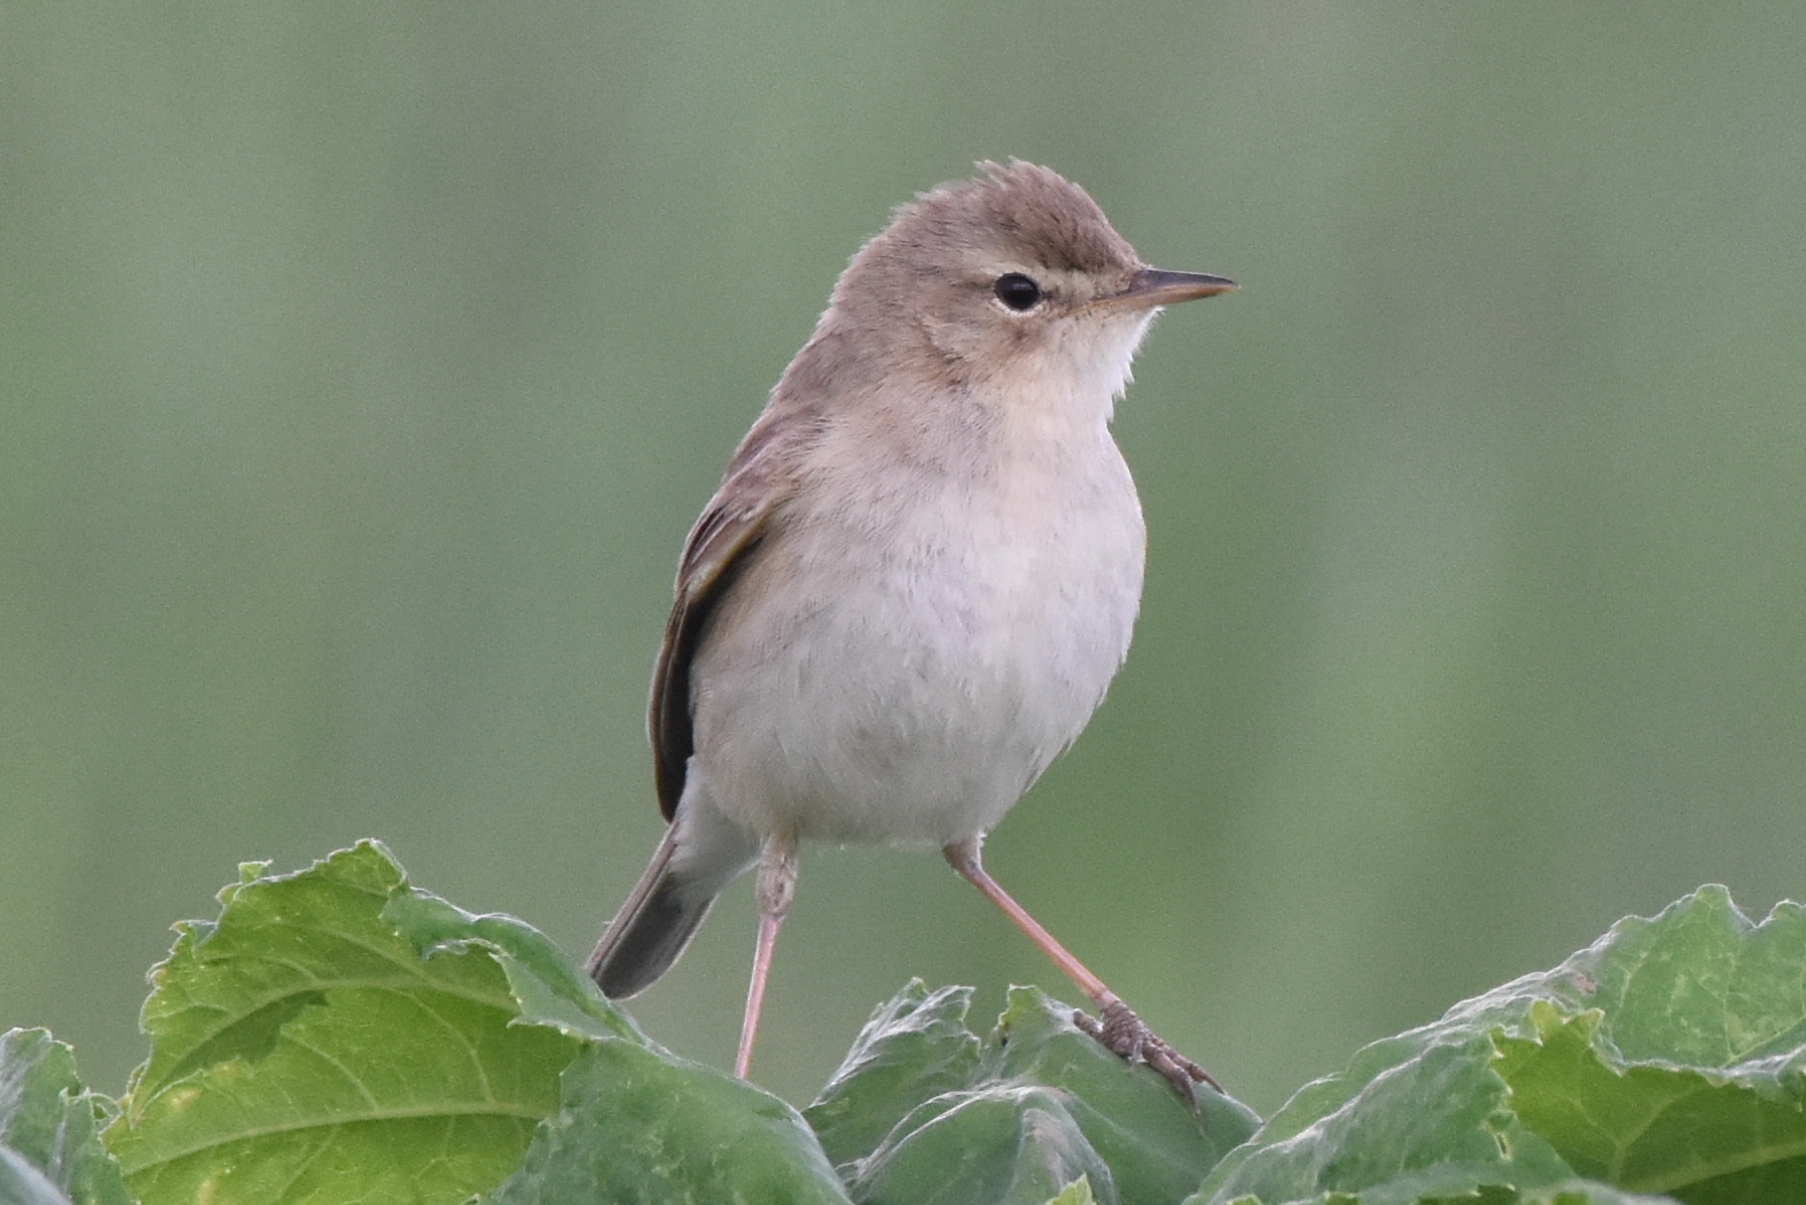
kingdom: Animalia
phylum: Chordata
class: Aves
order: Passeriformes
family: Acrocephalidae
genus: Iduna
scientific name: Iduna caligata
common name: Booted warbler
